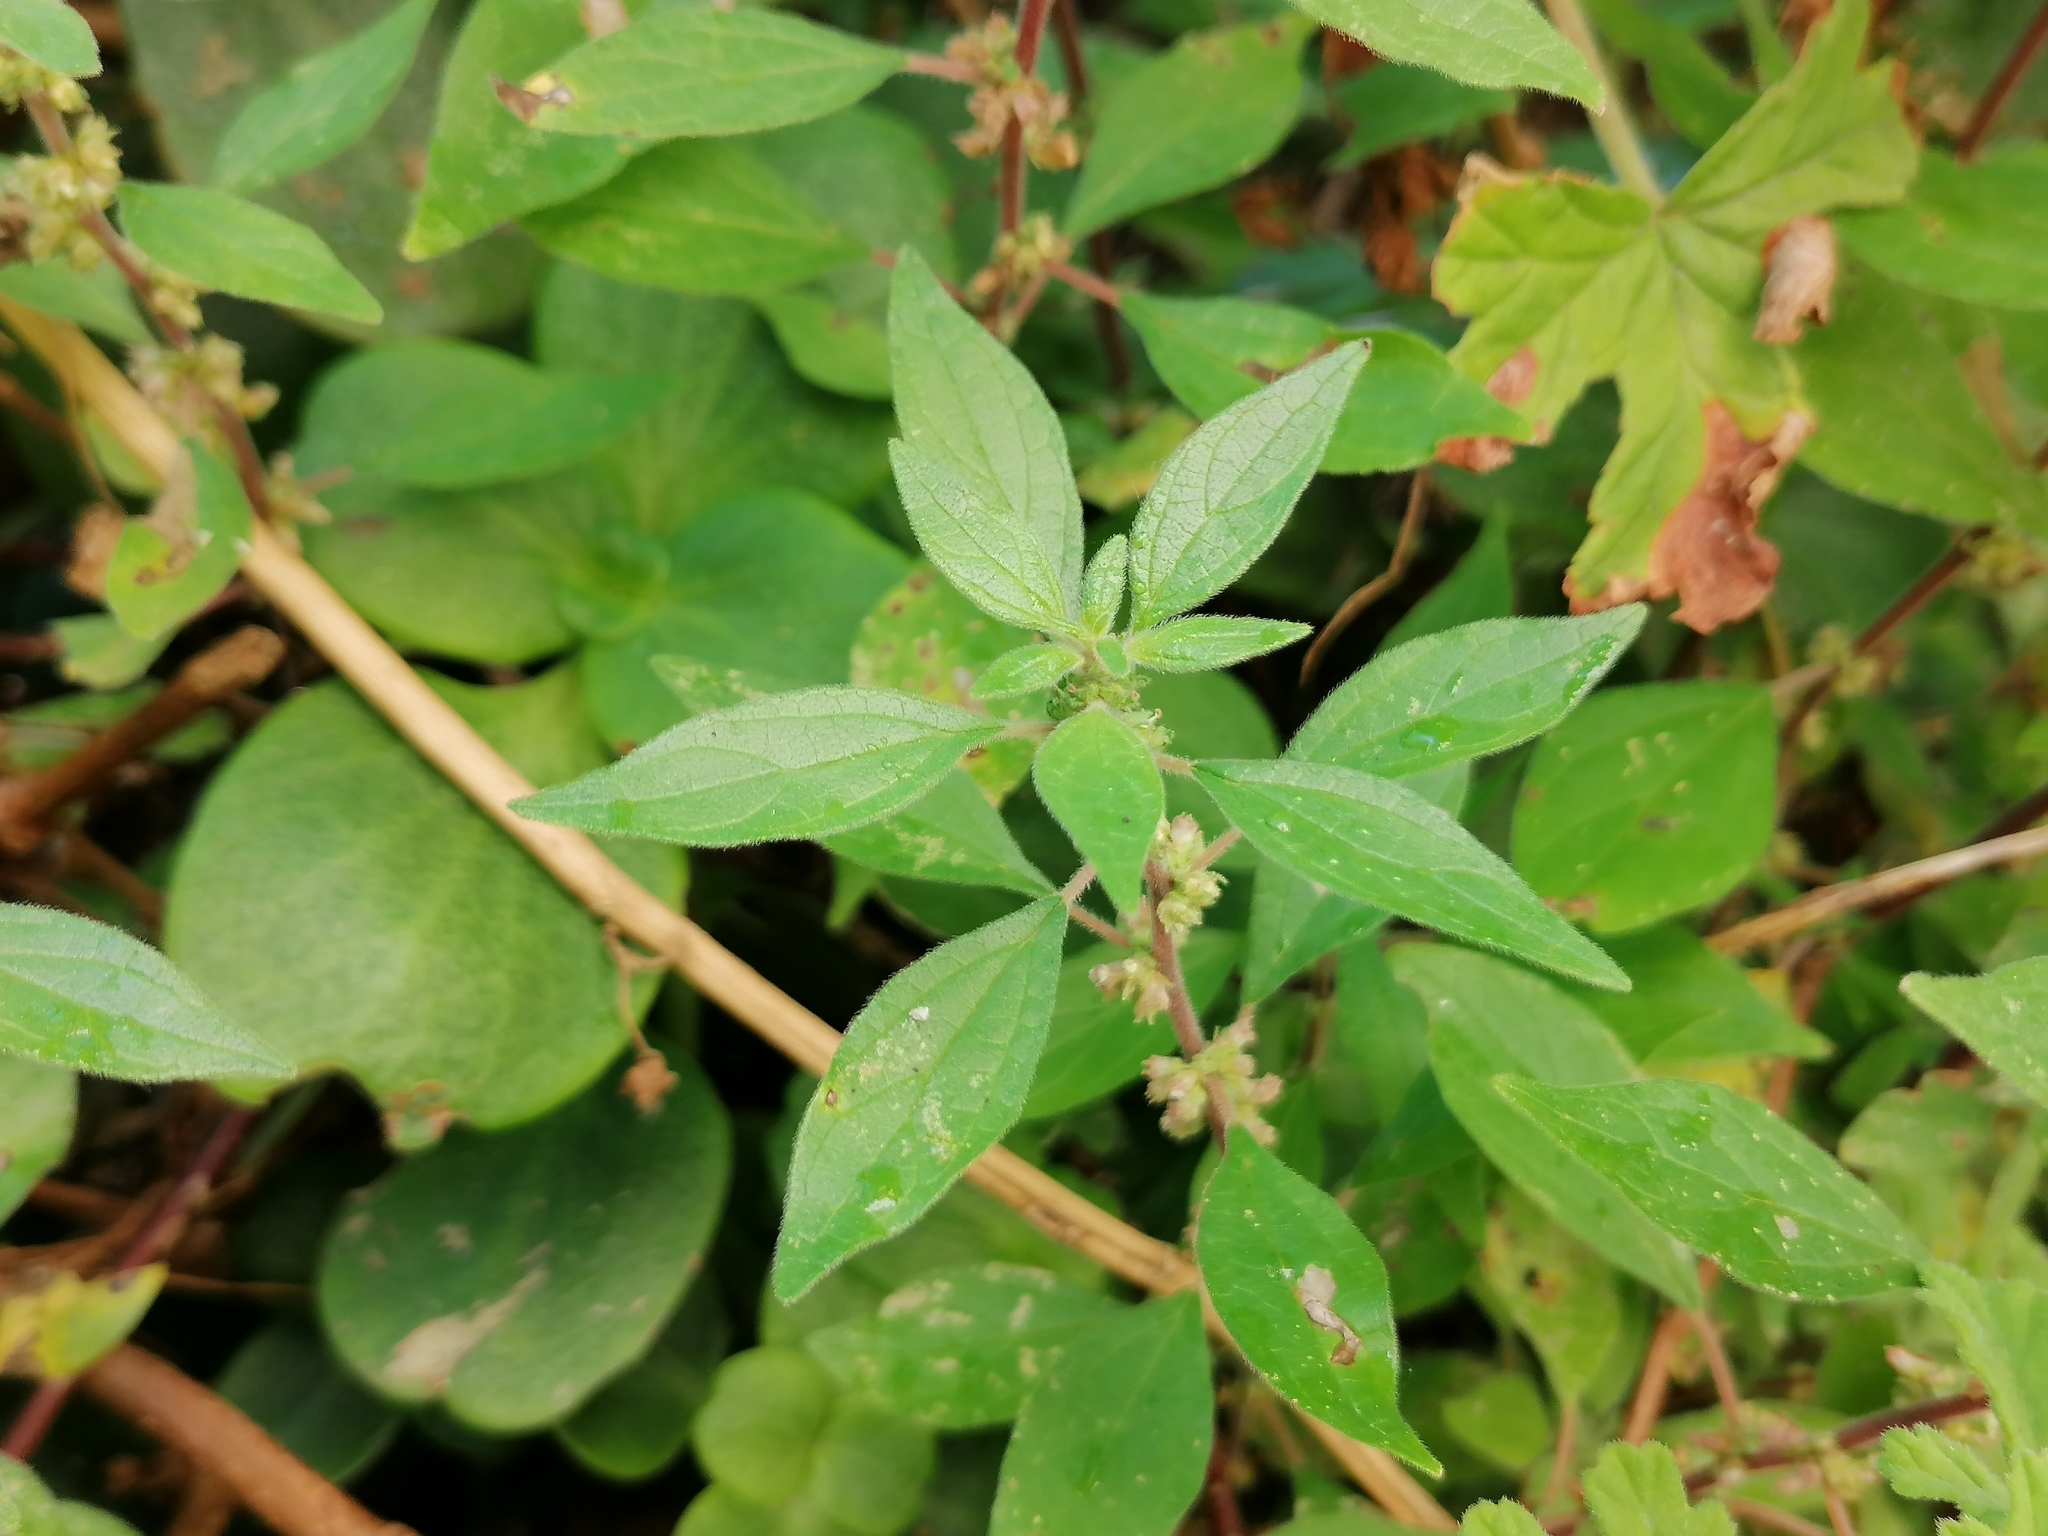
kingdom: Plantae
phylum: Tracheophyta
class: Magnoliopsida
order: Rosales
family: Urticaceae
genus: Parietaria
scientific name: Parietaria judaica
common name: Pellitory-of-the-wall
